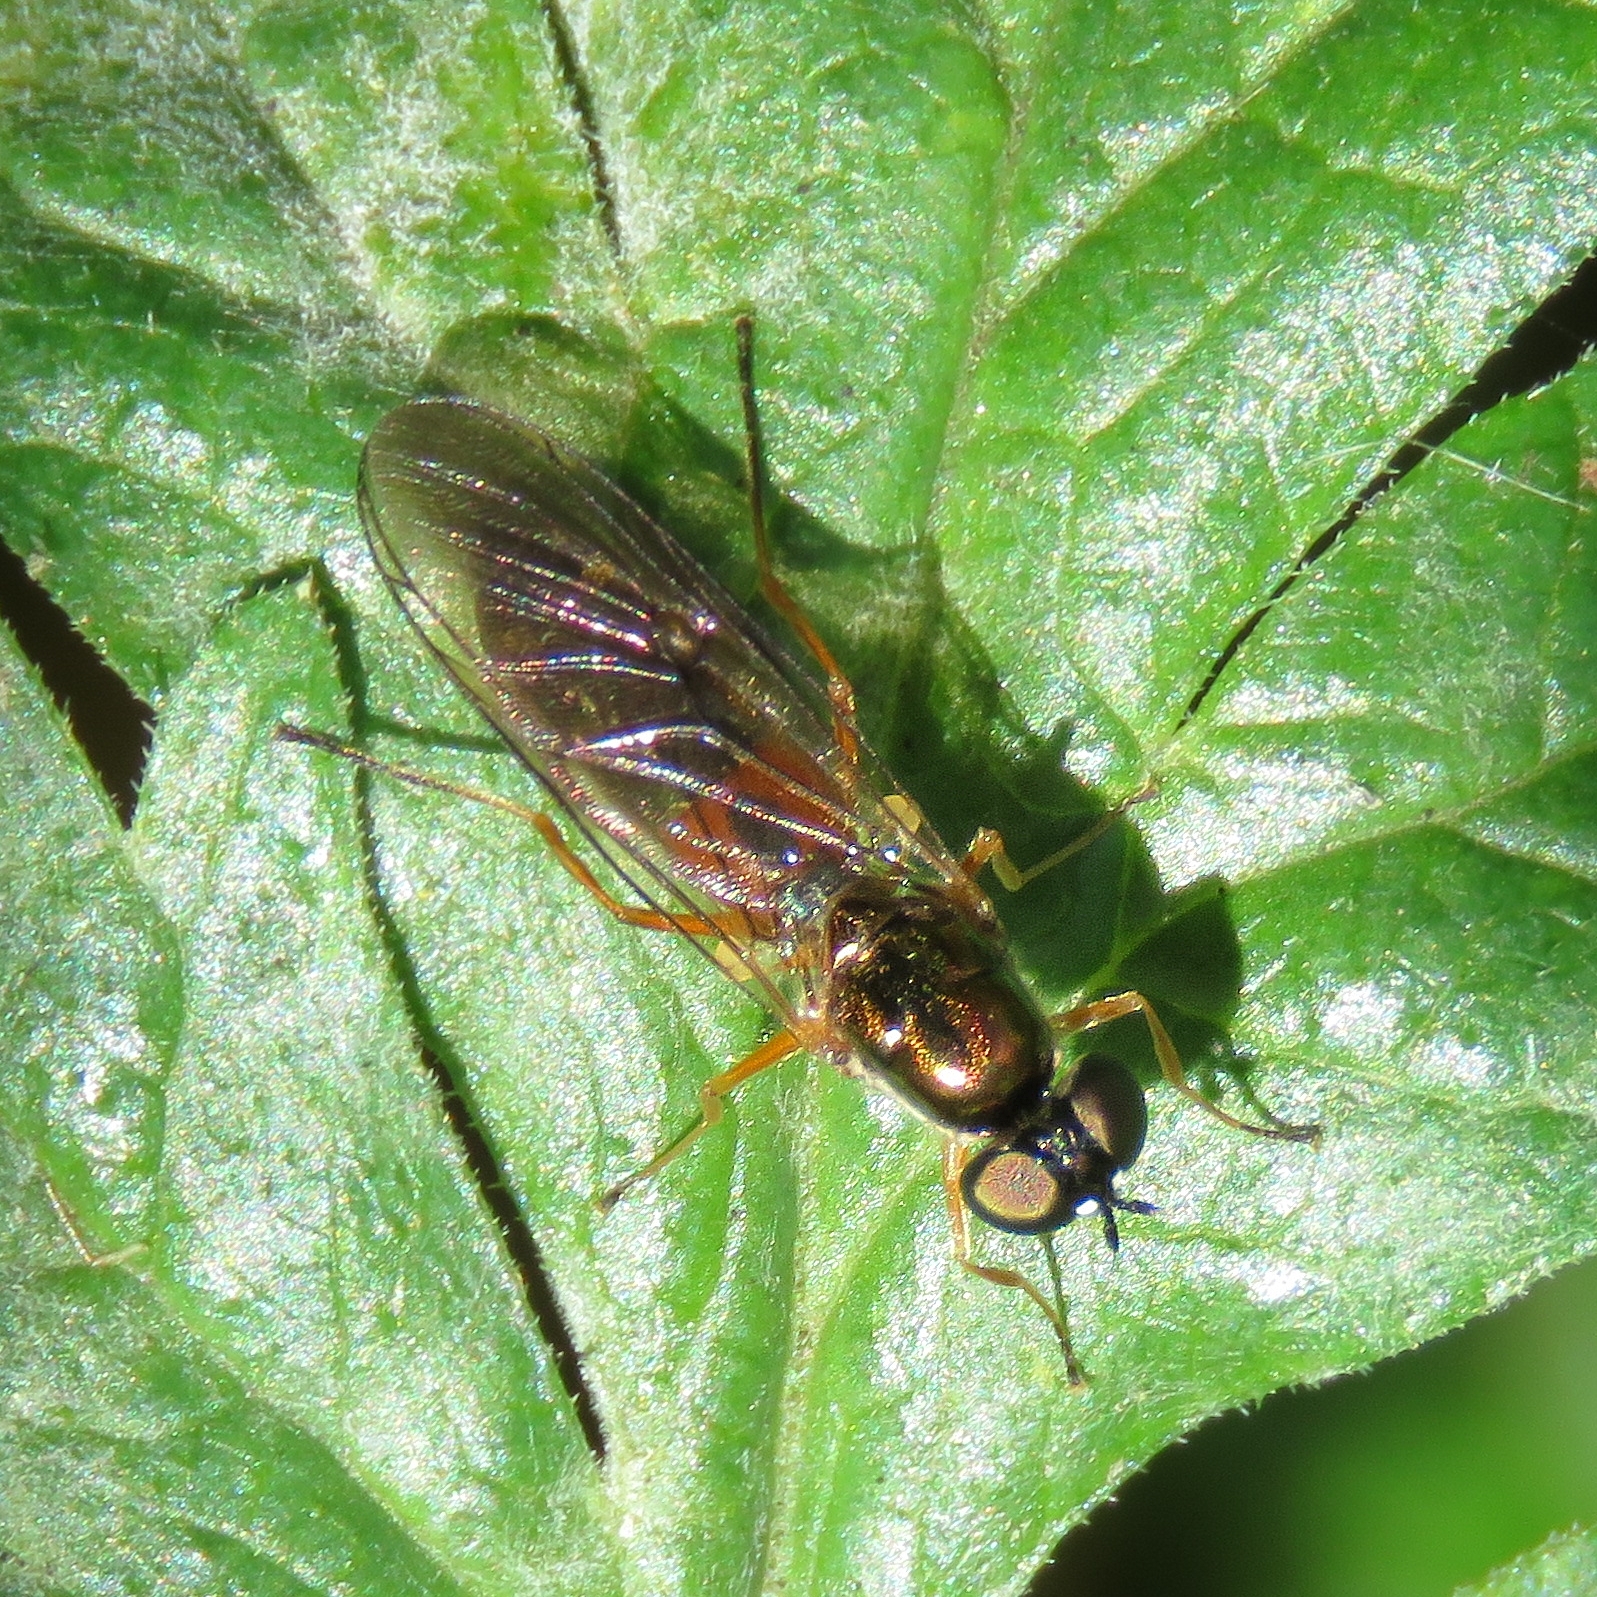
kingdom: Animalia
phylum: Arthropoda
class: Insecta
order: Diptera
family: Stratiomyidae
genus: Sargus
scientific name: Sargus bipunctatus
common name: Twin-spot centurion
